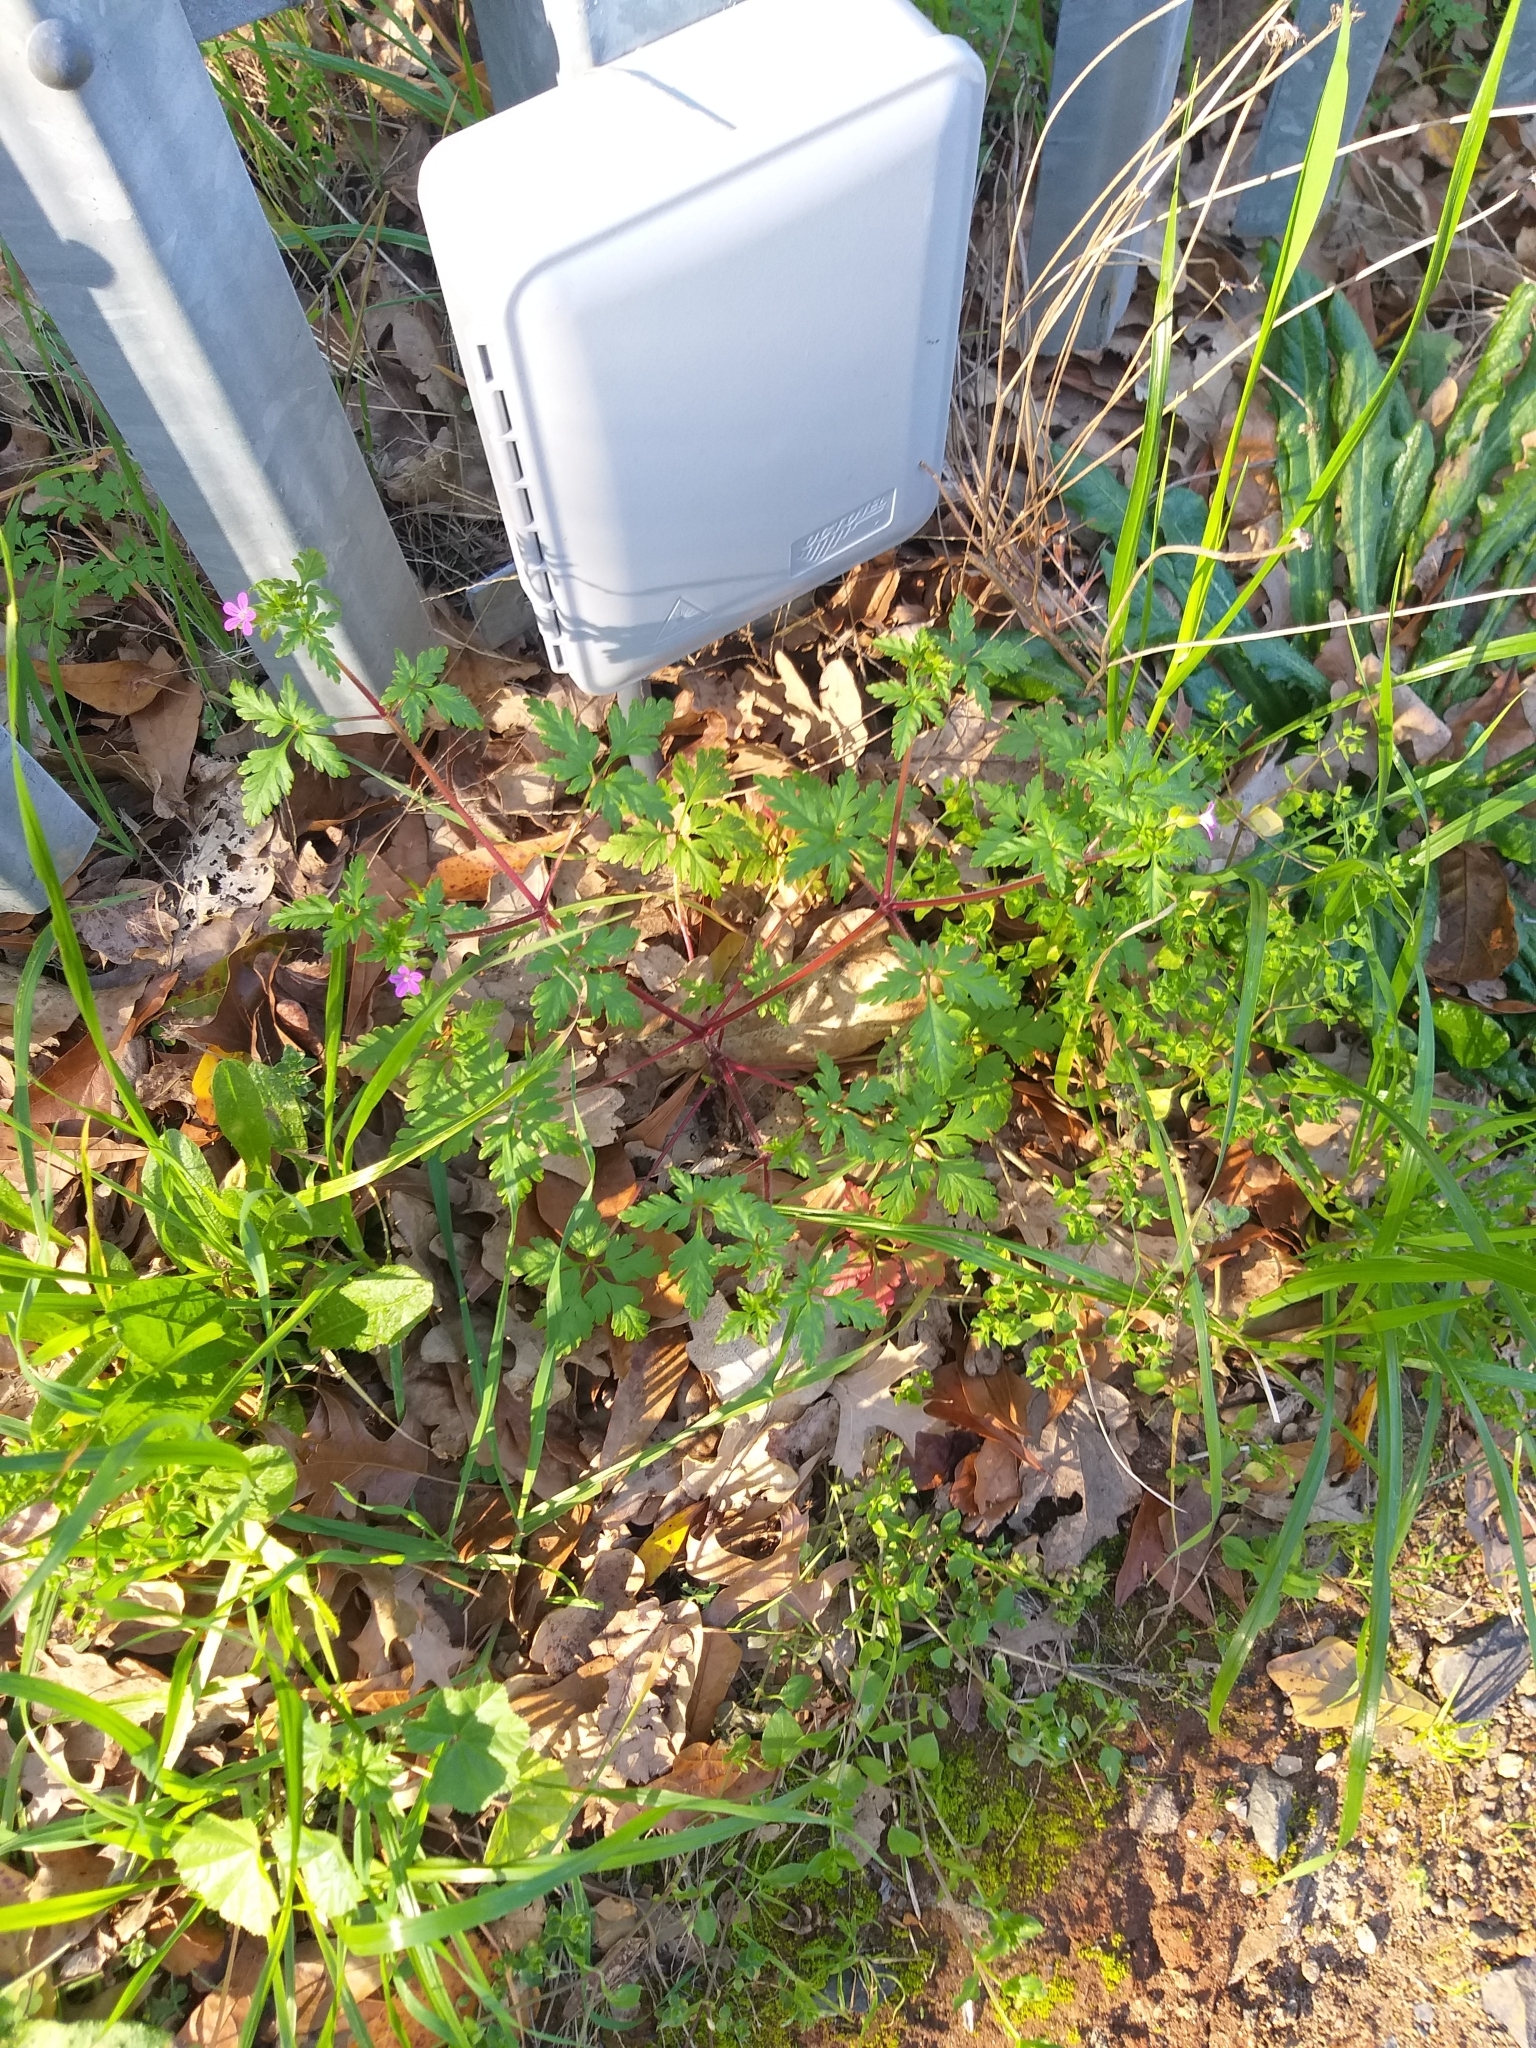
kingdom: Plantae
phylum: Tracheophyta
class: Magnoliopsida
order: Geraniales
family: Geraniaceae
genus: Geranium
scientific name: Geranium purpureum
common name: Little-robin
